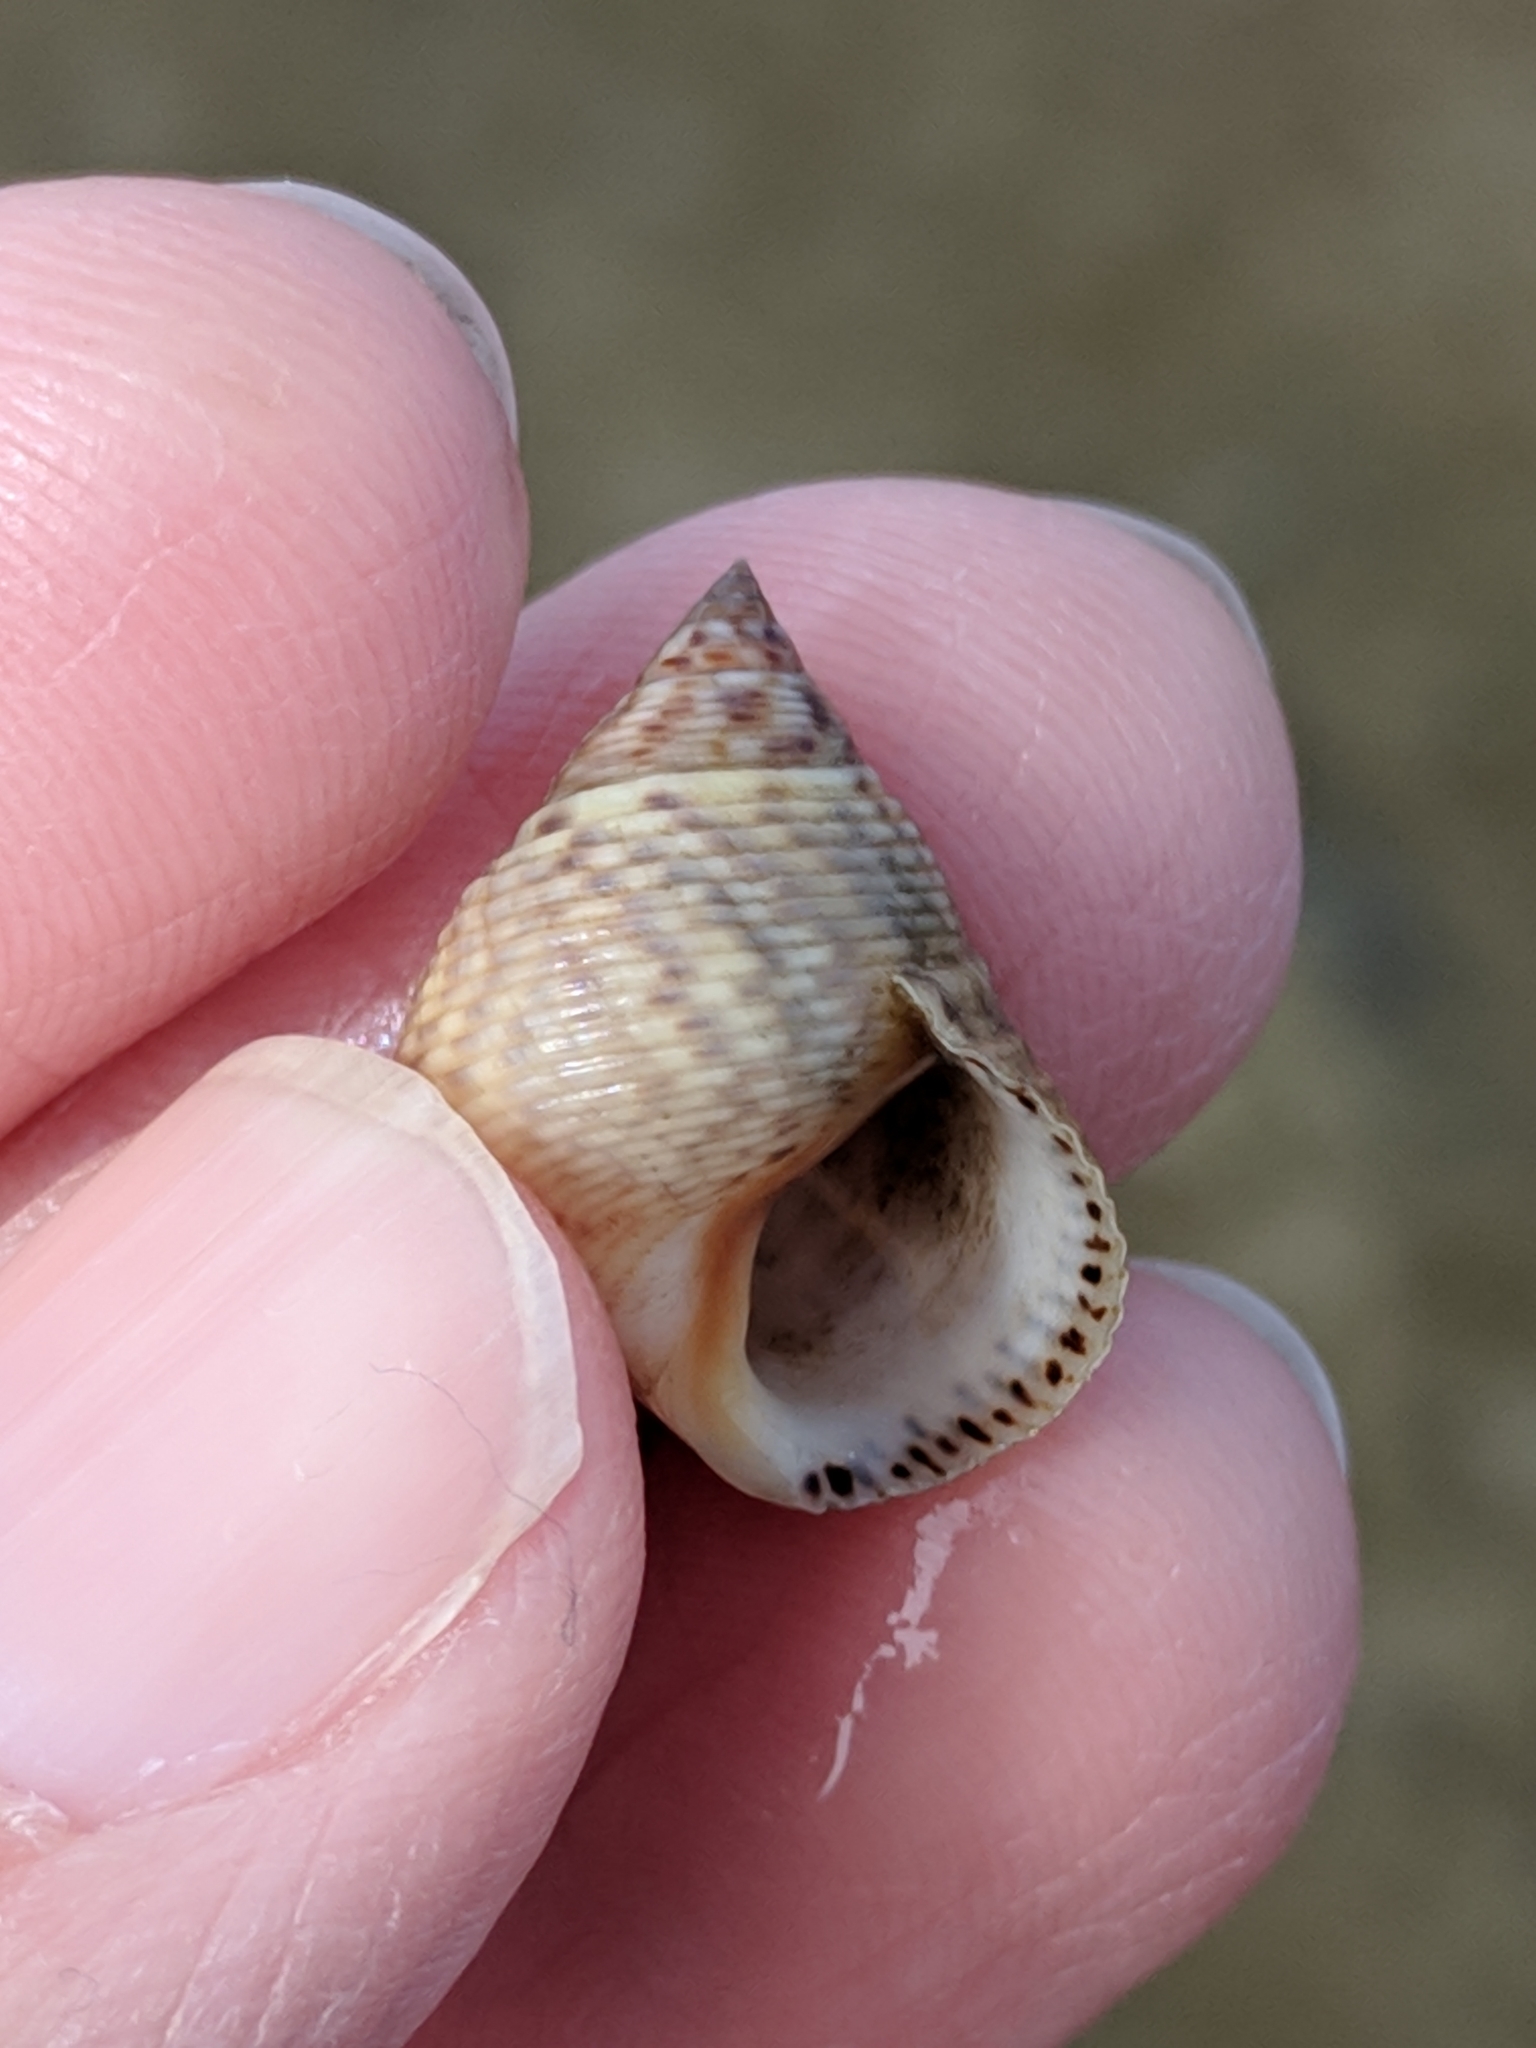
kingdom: Animalia
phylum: Mollusca
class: Gastropoda
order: Littorinimorpha
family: Littorinidae
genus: Littoraria
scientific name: Littoraria irrorata
